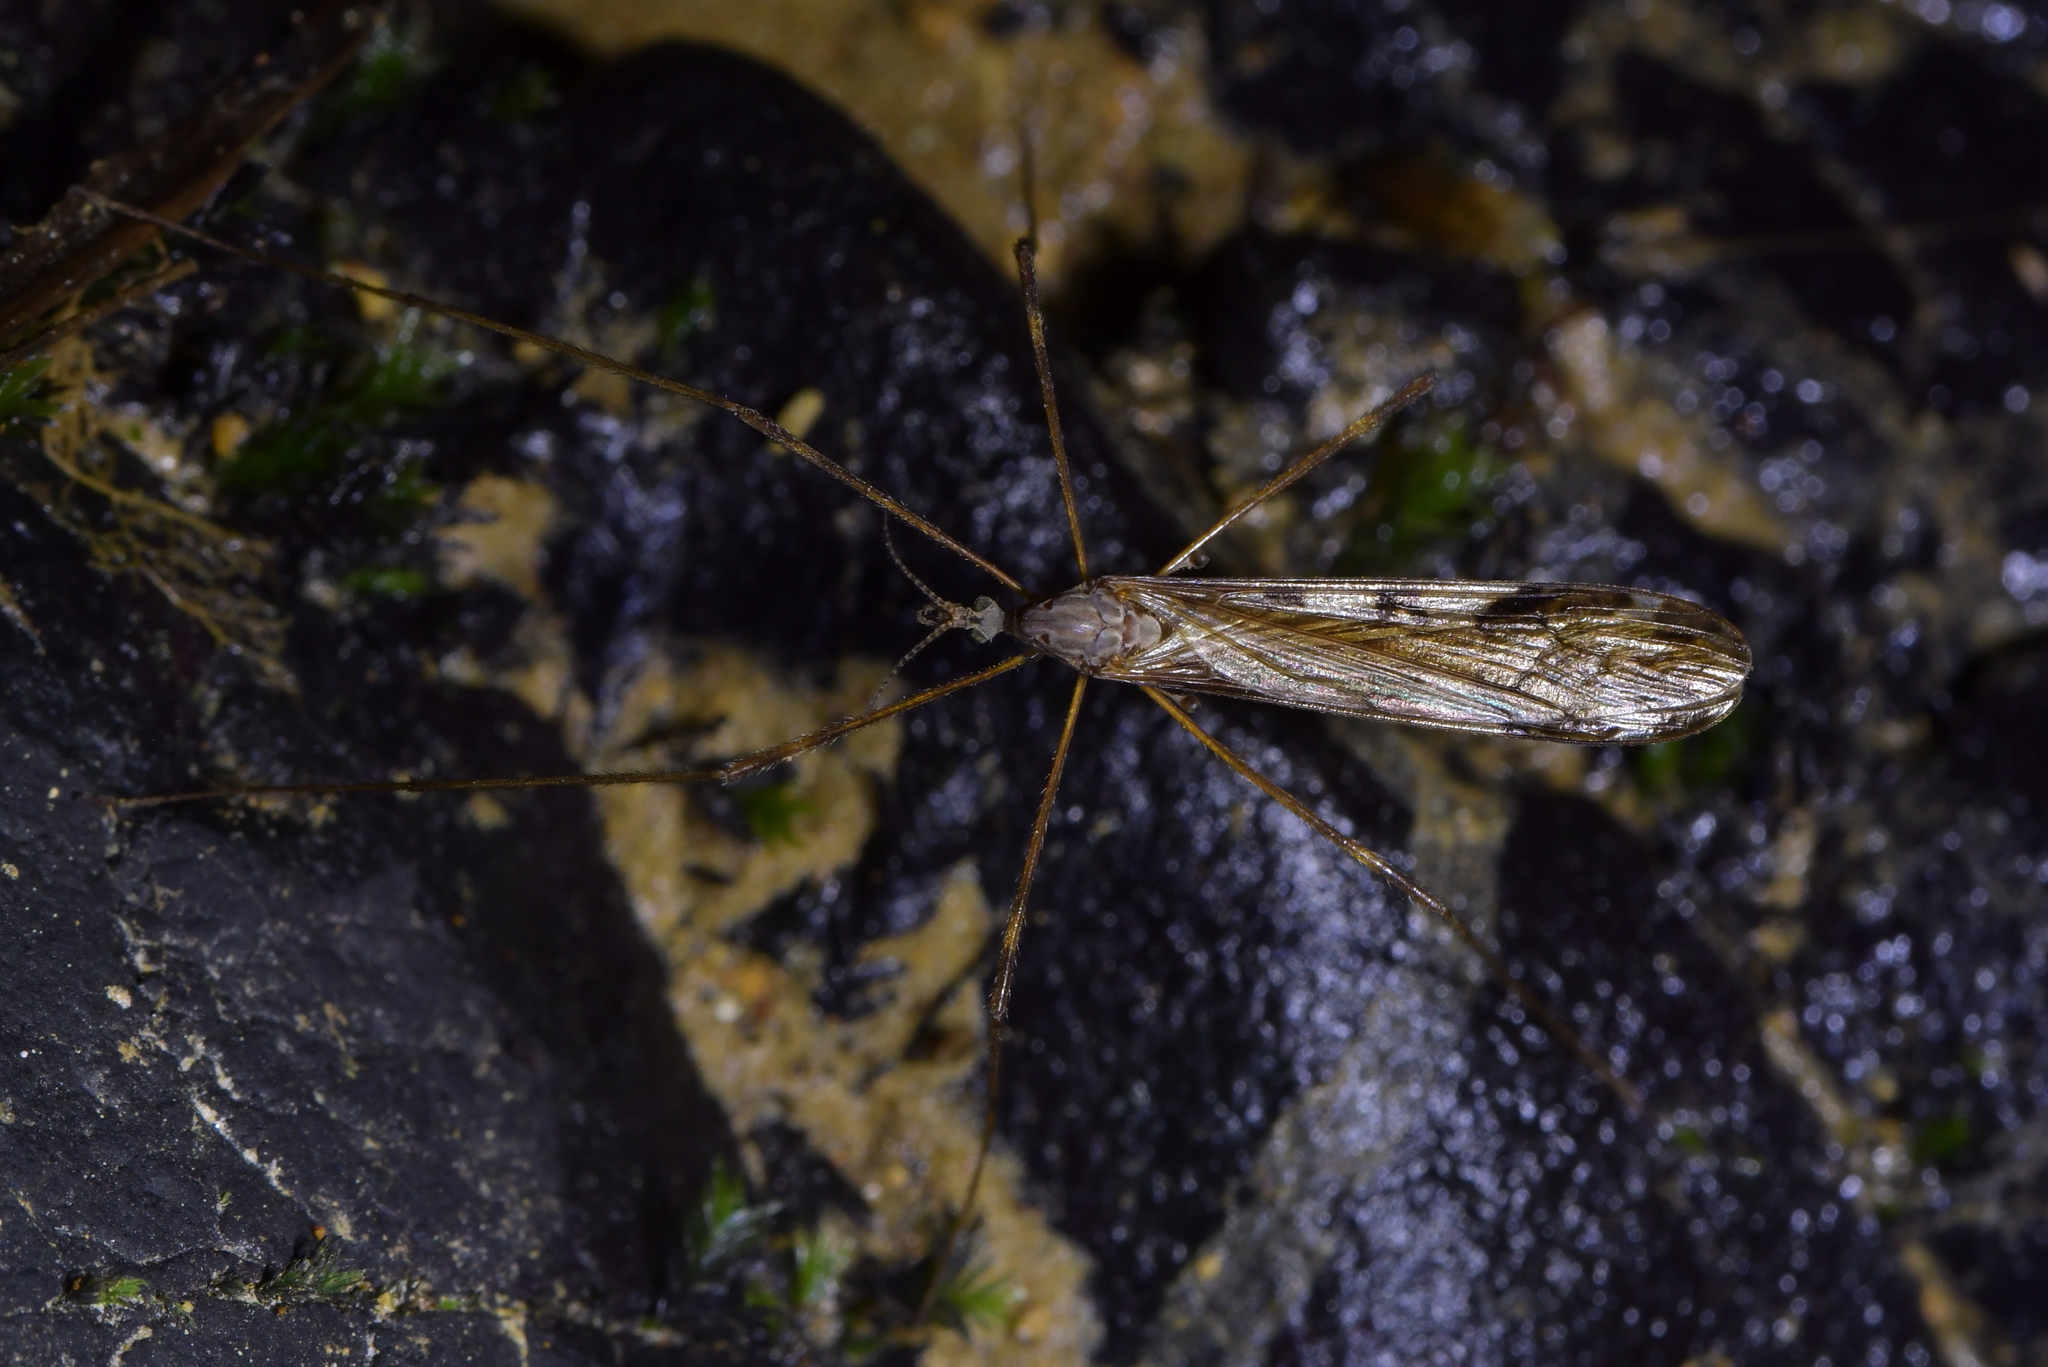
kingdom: Animalia
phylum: Arthropoda
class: Insecta
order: Diptera
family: Limoniidae
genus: Paralimnophila
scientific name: Paralimnophila skusei
